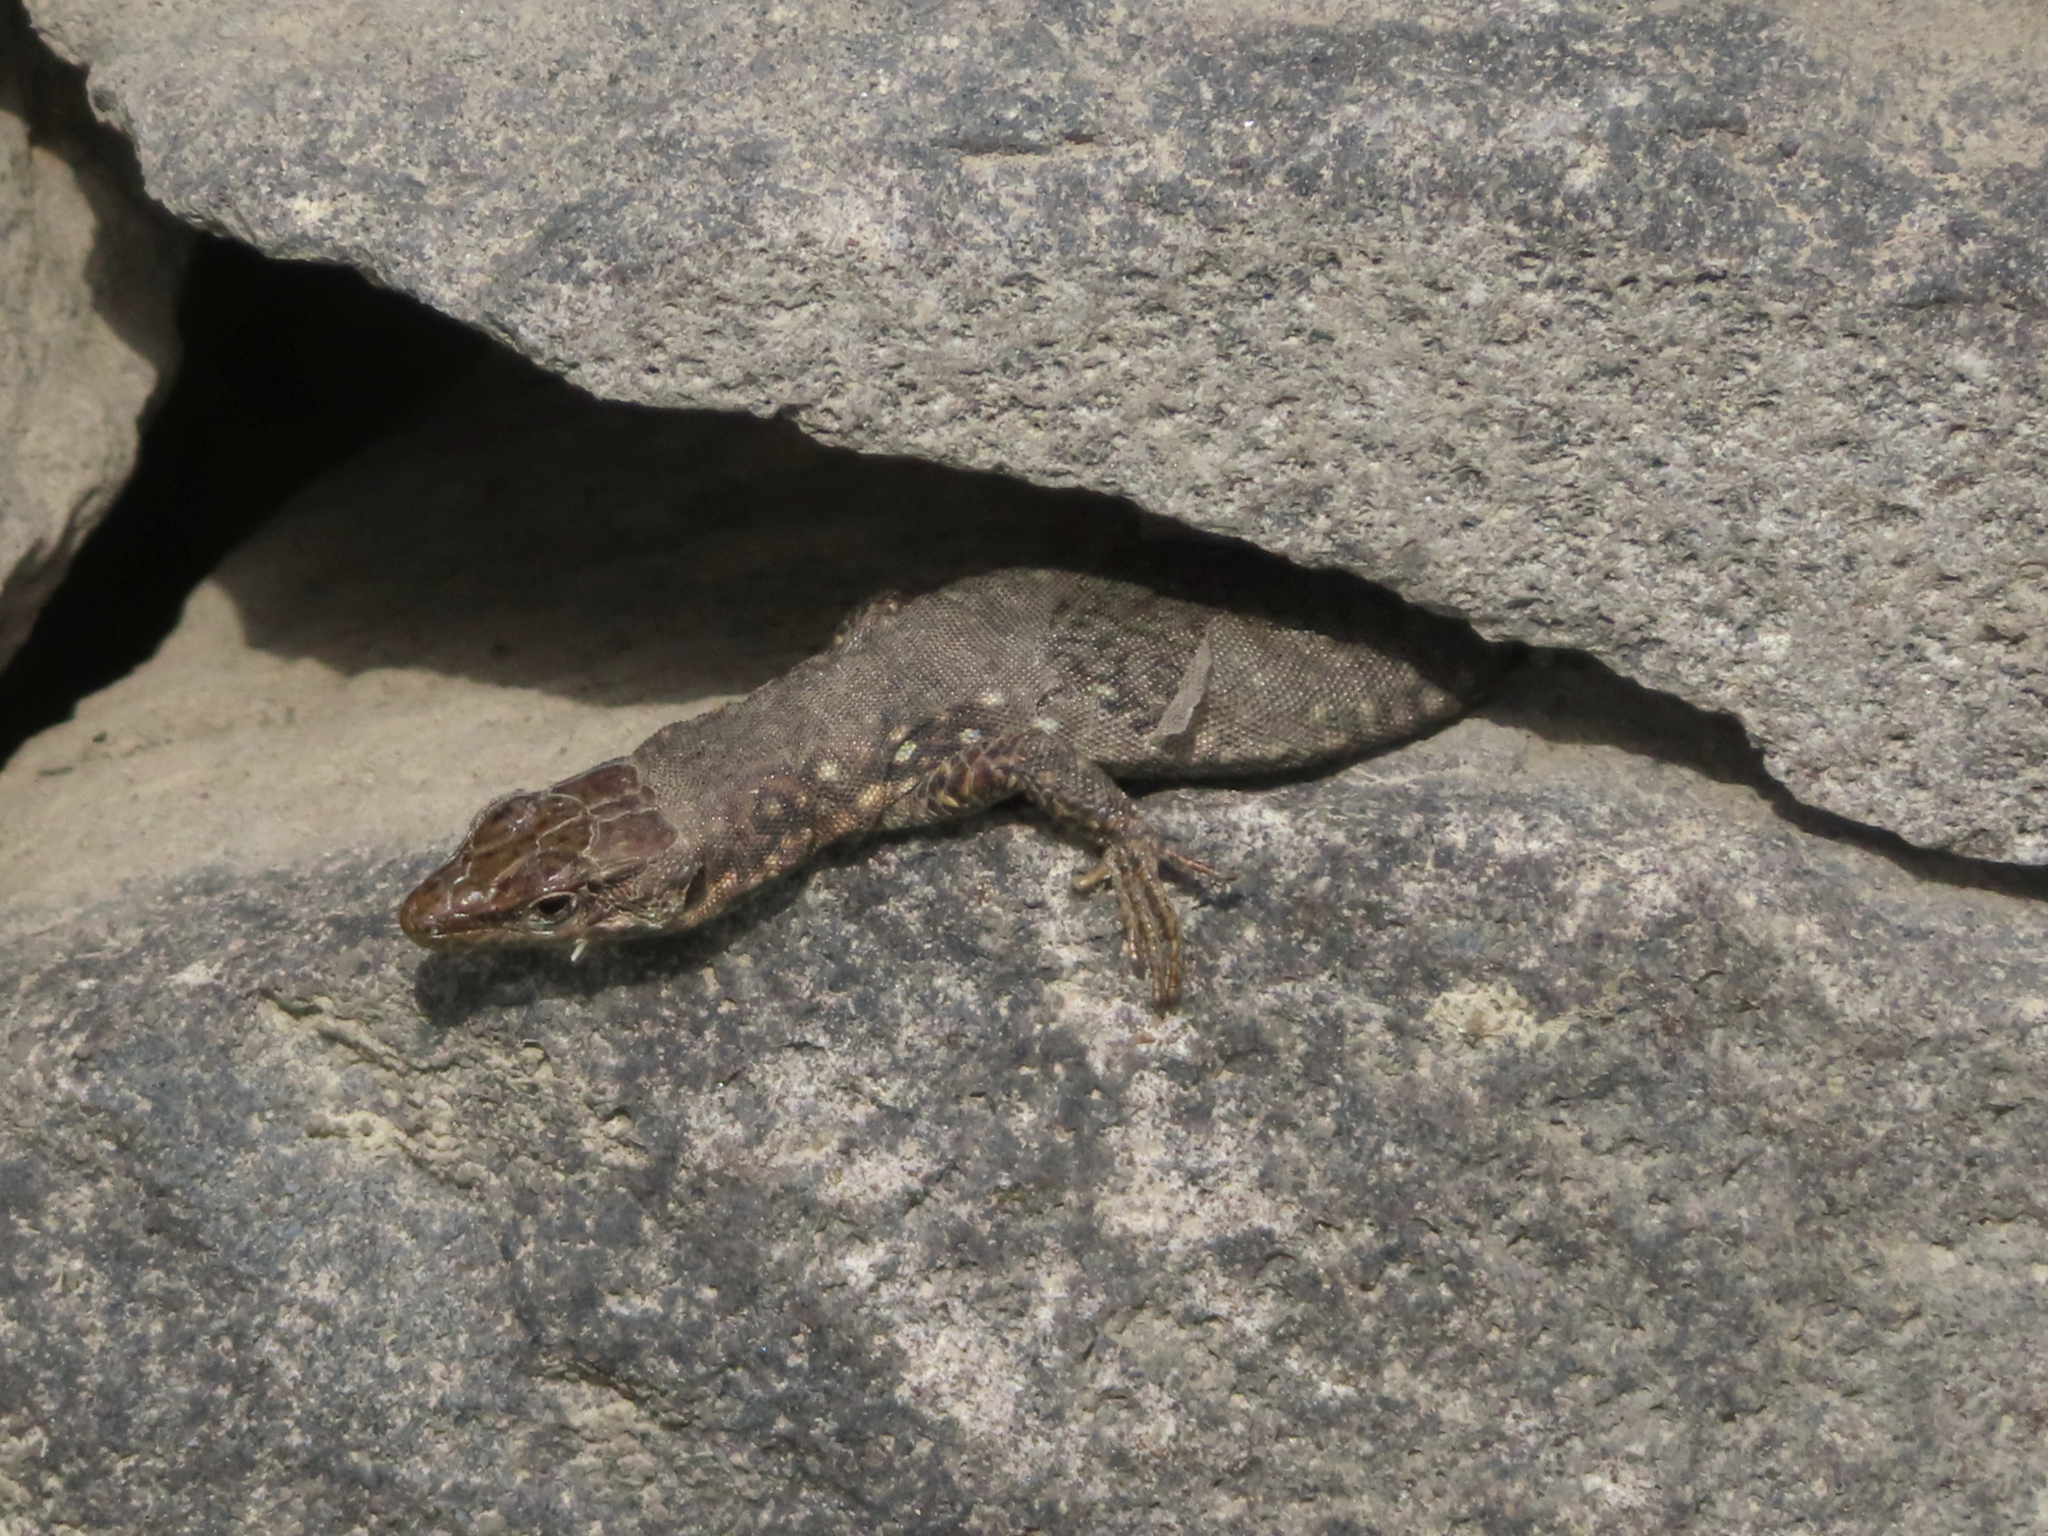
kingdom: Animalia
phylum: Chordata
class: Squamata
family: Lacertidae
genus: Darevskia
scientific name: Darevskia
